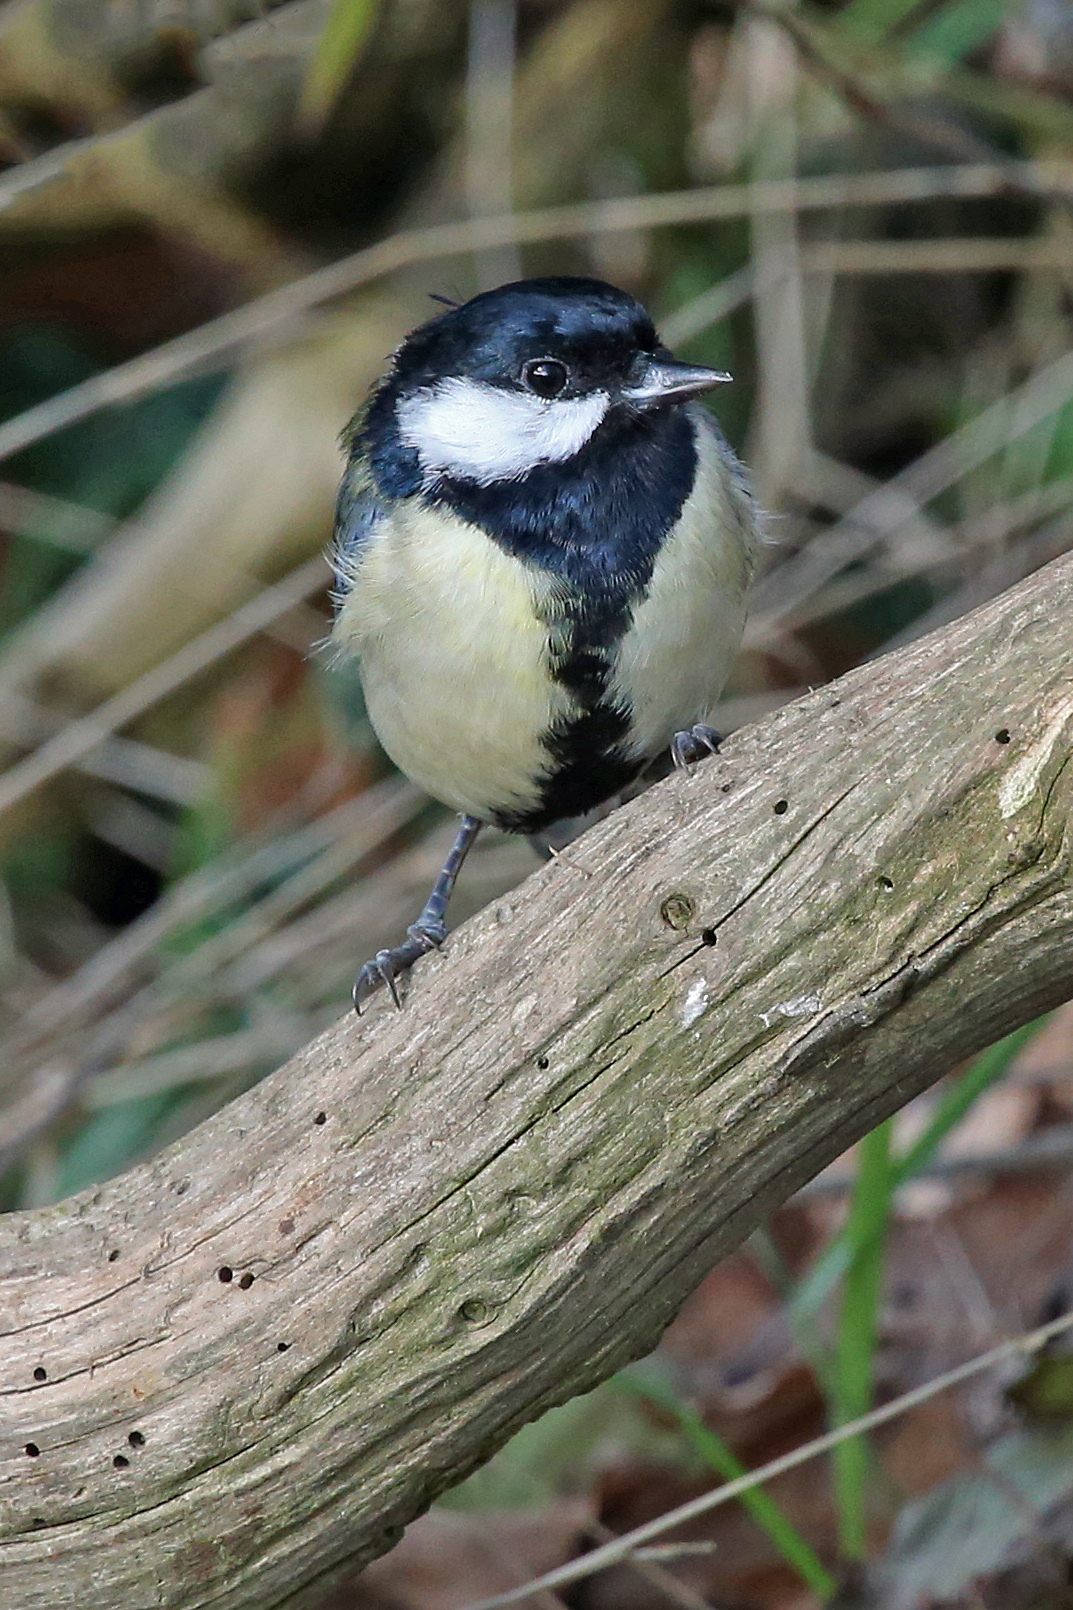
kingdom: Animalia
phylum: Chordata
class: Aves
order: Passeriformes
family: Paridae
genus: Parus
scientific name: Parus major
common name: Great tit
